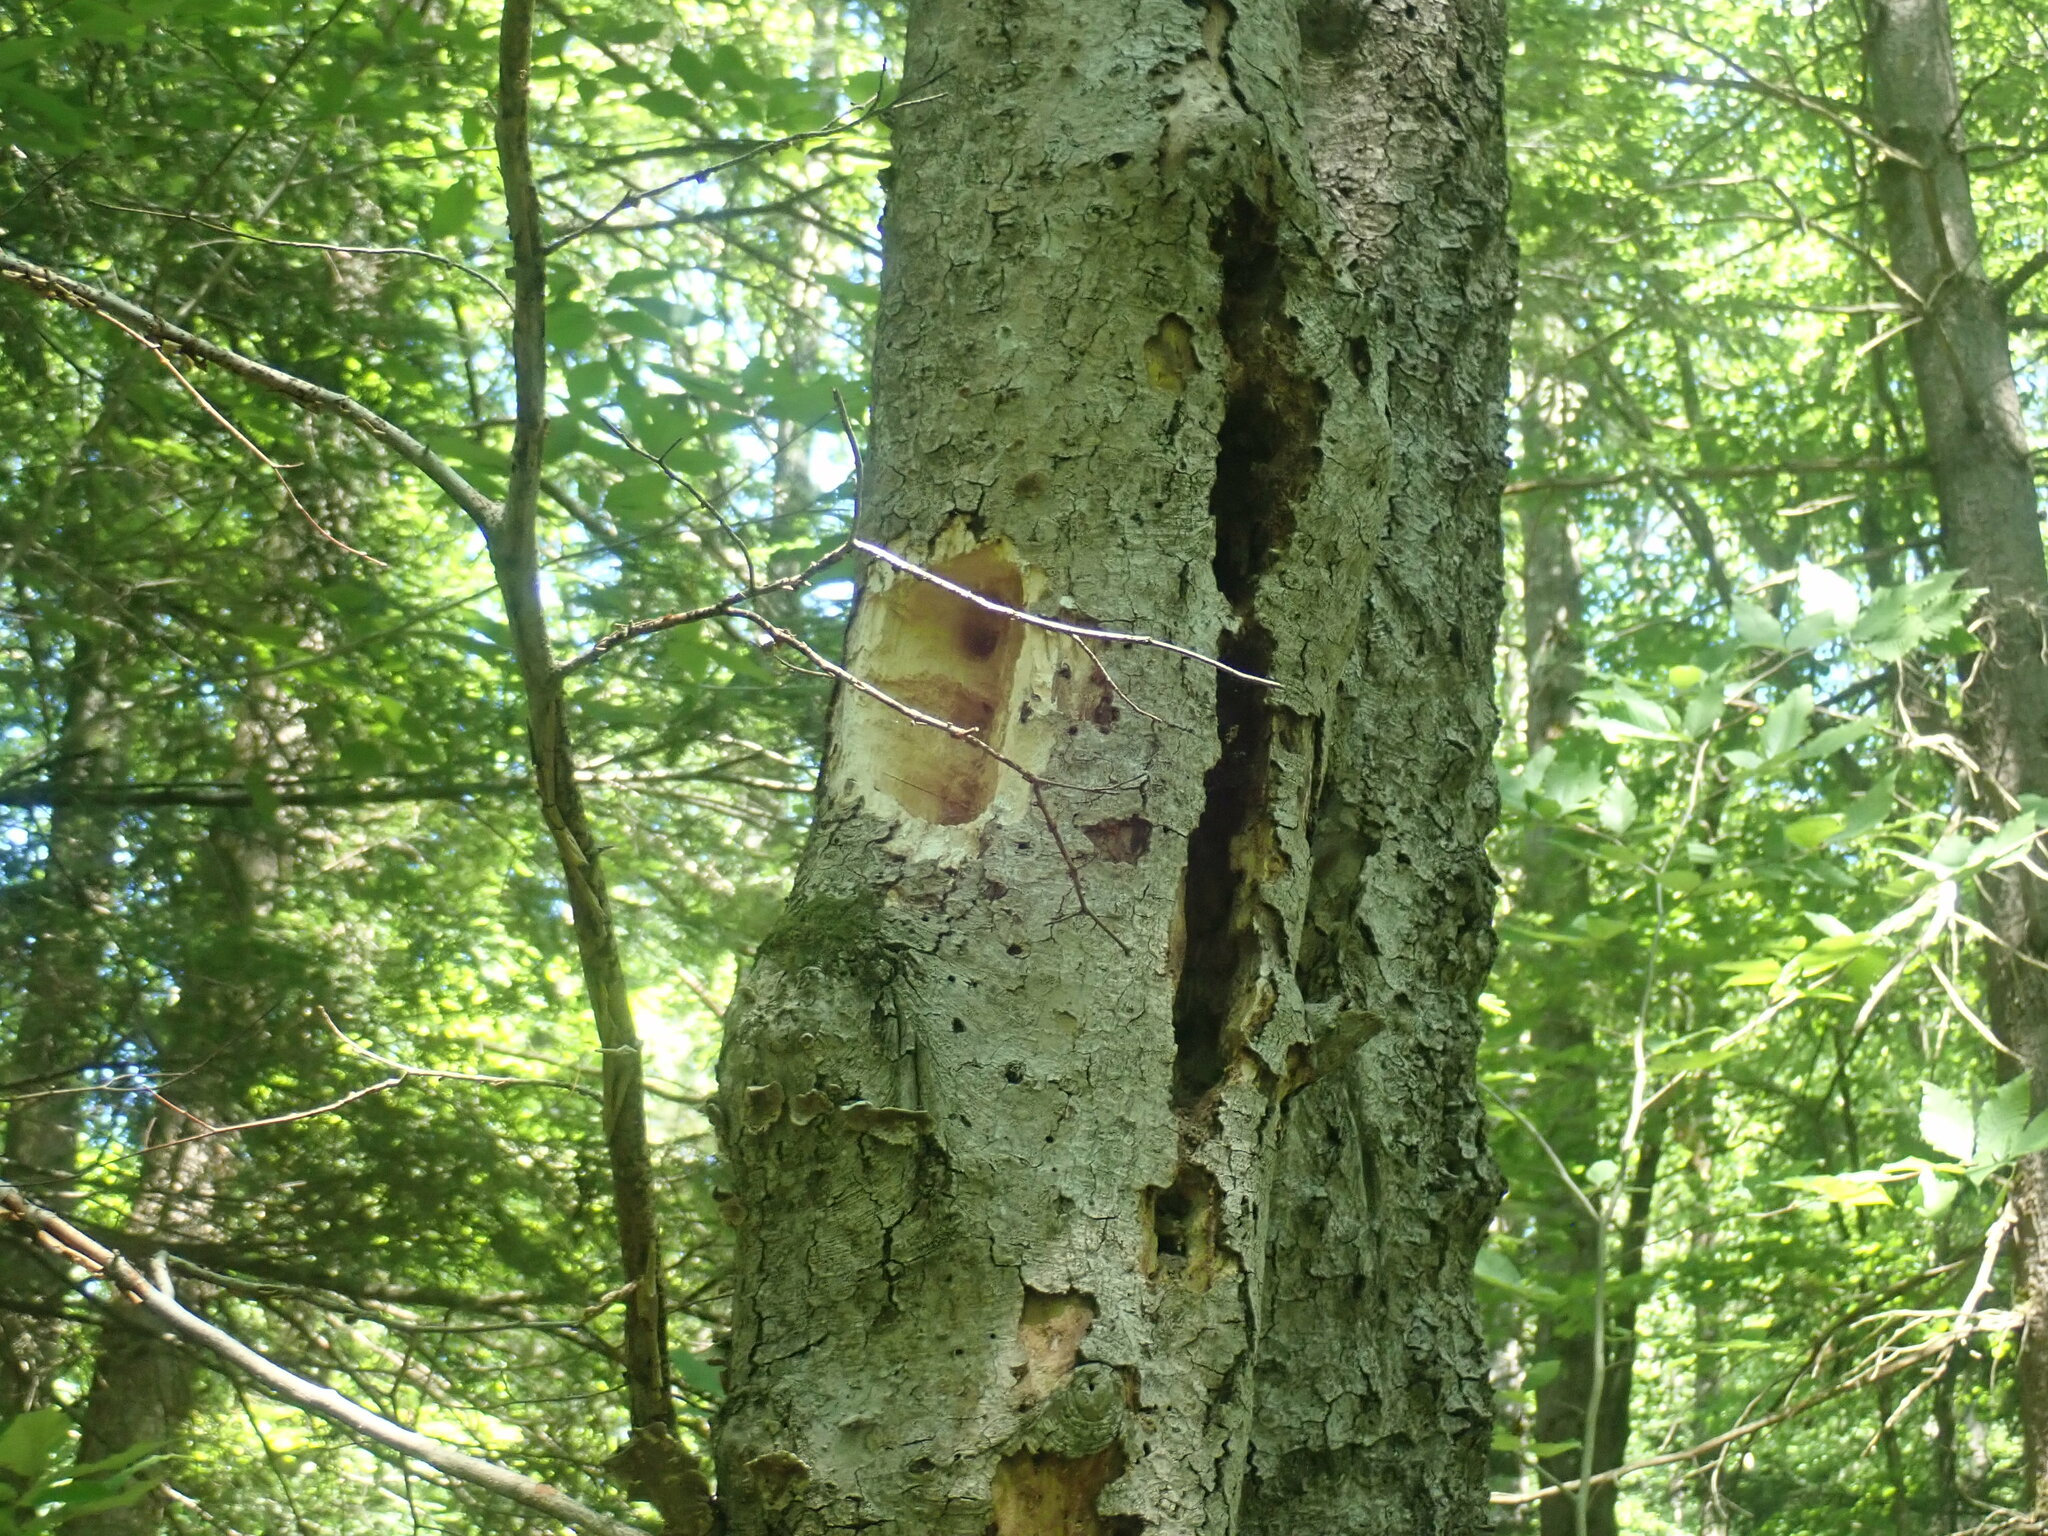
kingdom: Animalia
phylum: Chordata
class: Aves
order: Piciformes
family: Picidae
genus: Dryocopus
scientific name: Dryocopus pileatus
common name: Pileated woodpecker
